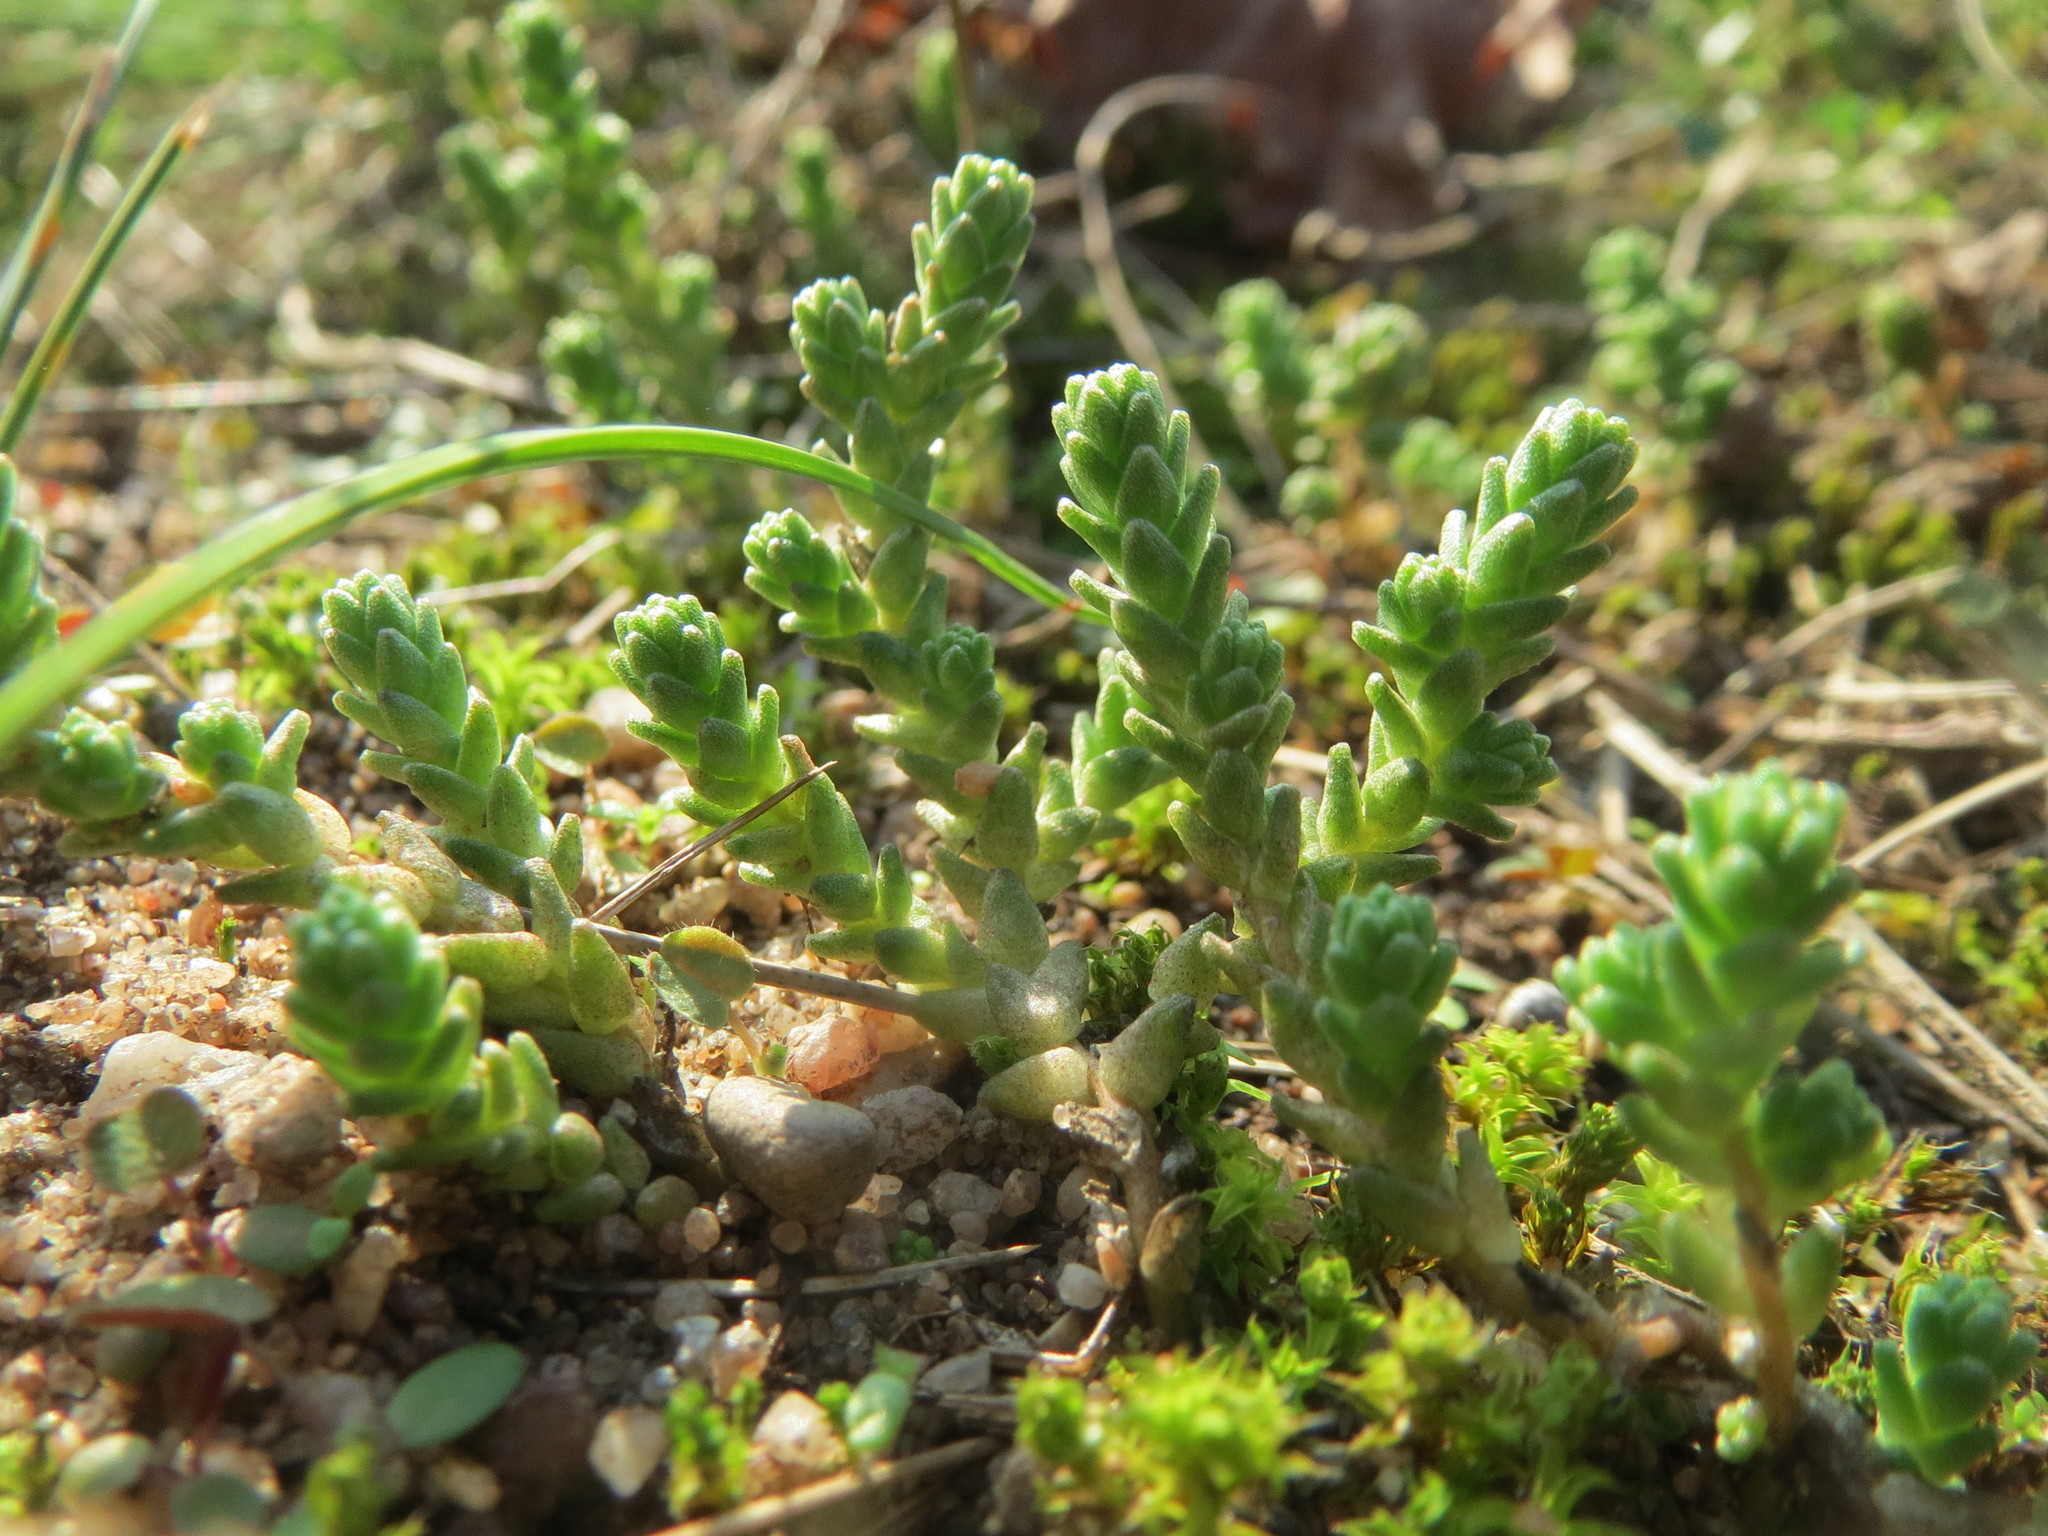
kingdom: Plantae
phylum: Tracheophyta
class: Magnoliopsida
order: Saxifragales
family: Crassulaceae
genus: Sedum
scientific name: Sedum acre
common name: Biting stonecrop
